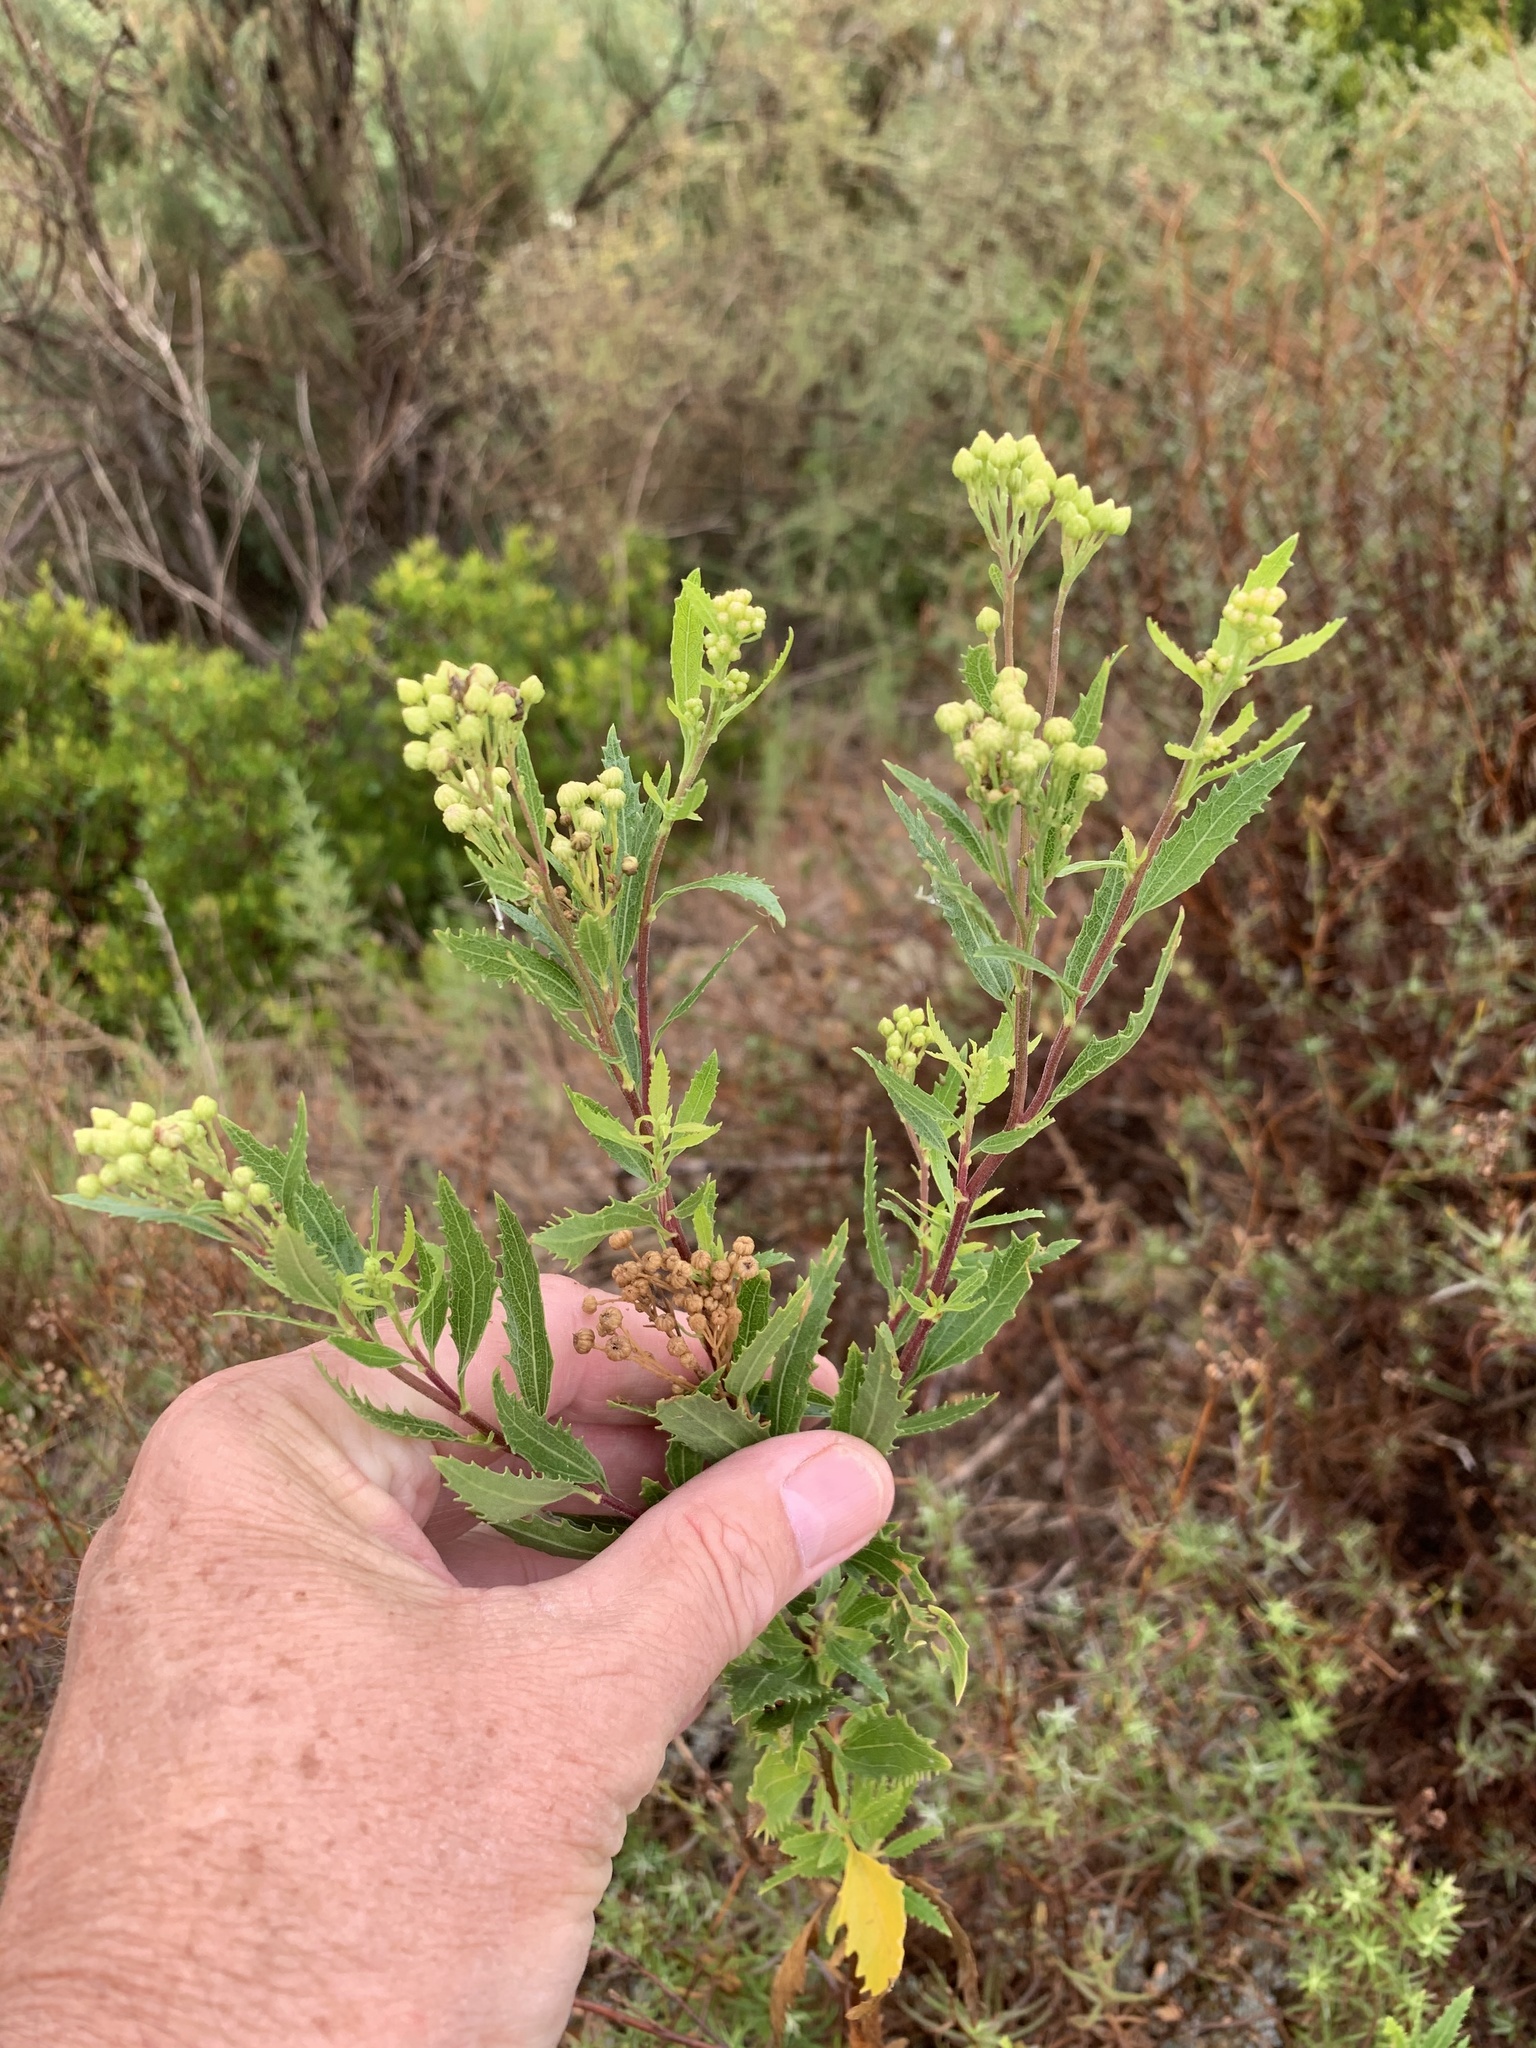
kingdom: Plantae
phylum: Tracheophyta
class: Magnoliopsida
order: Asterales
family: Asteraceae
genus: Nidorella
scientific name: Nidorella ivifolia
